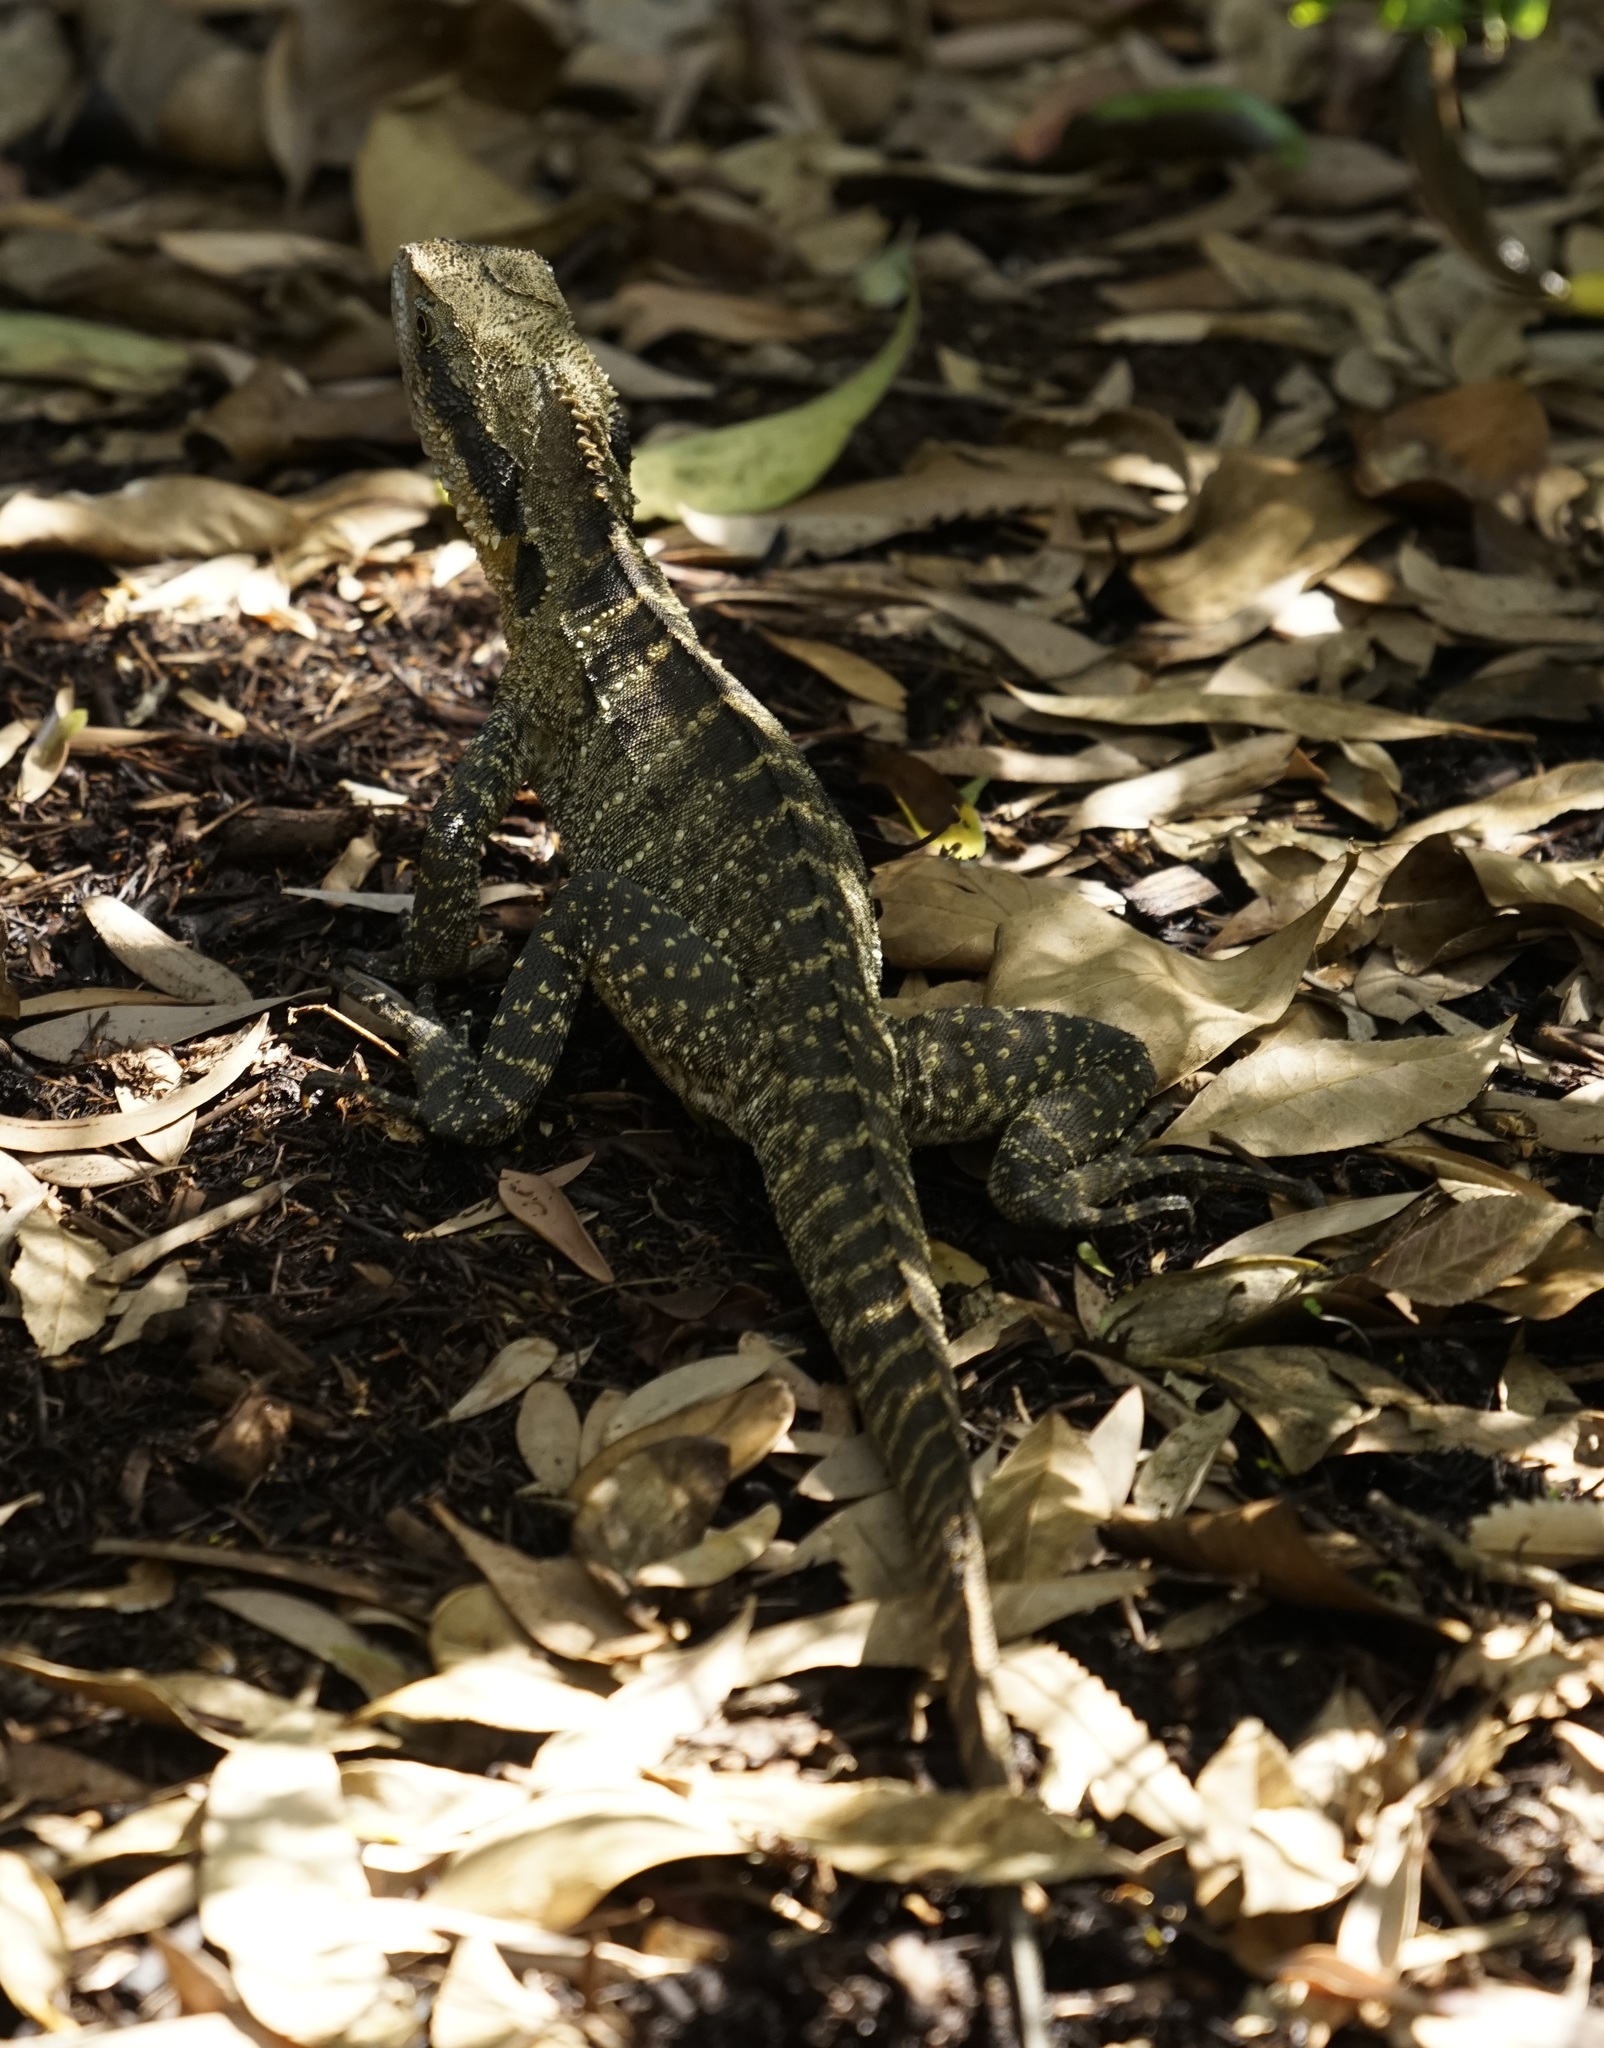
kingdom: Animalia
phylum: Chordata
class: Squamata
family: Agamidae
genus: Intellagama
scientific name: Intellagama lesueurii
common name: Eastern water dragon
